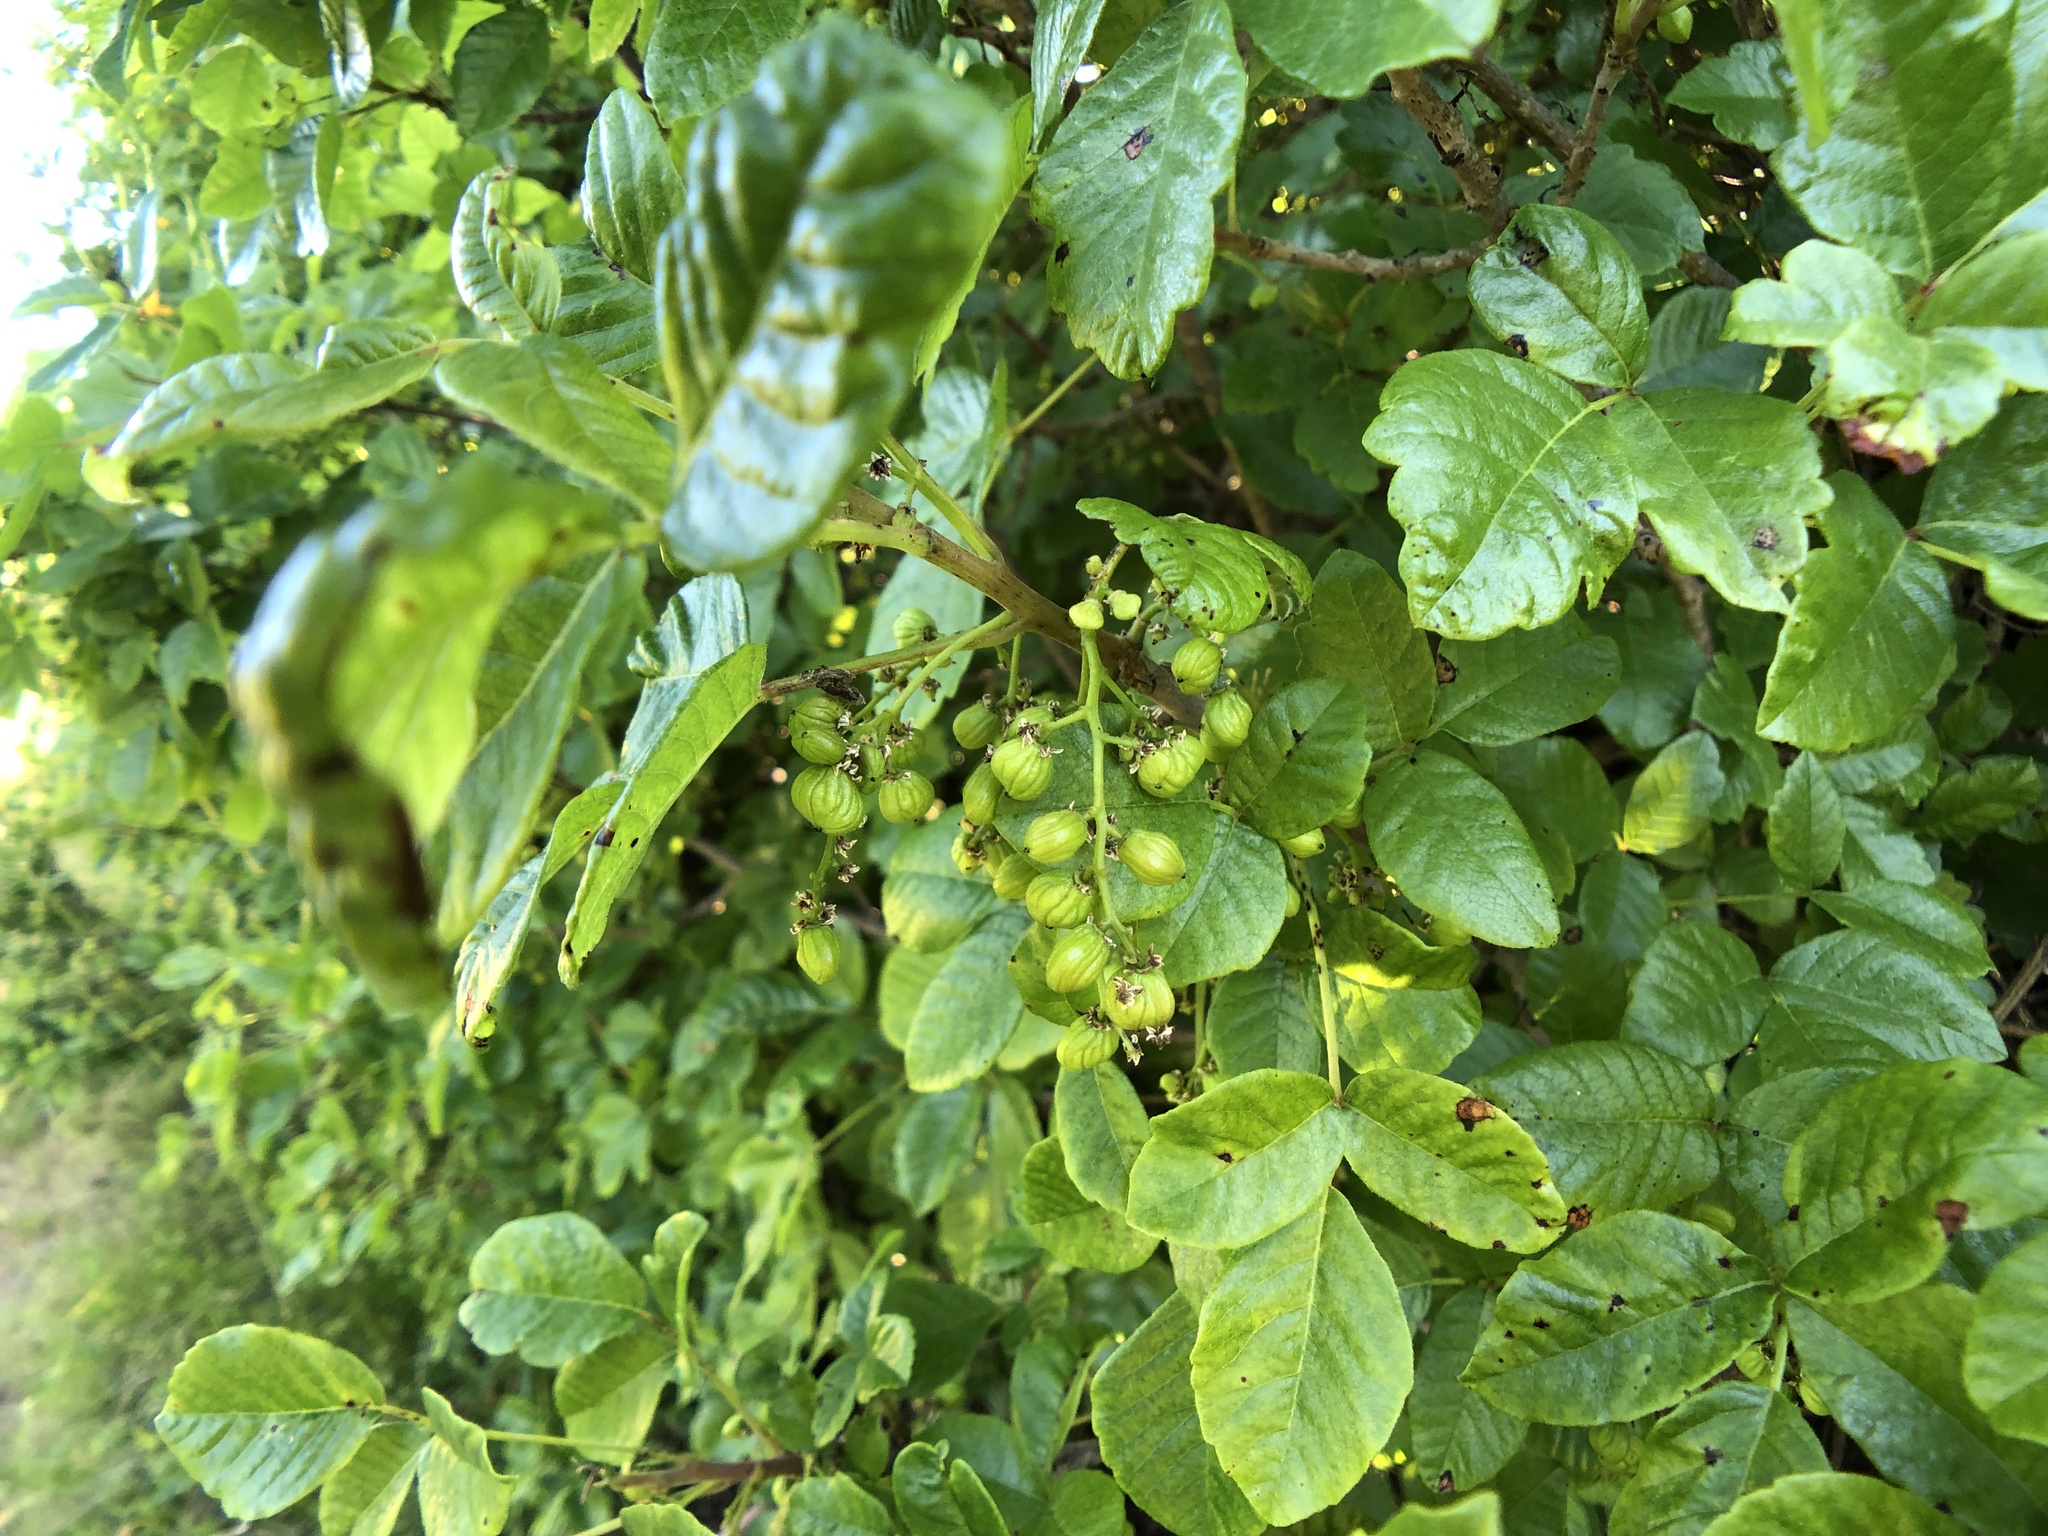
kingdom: Plantae
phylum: Tracheophyta
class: Magnoliopsida
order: Sapindales
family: Anacardiaceae
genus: Toxicodendron
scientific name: Toxicodendron diversilobum
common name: Pacific poison-oak
